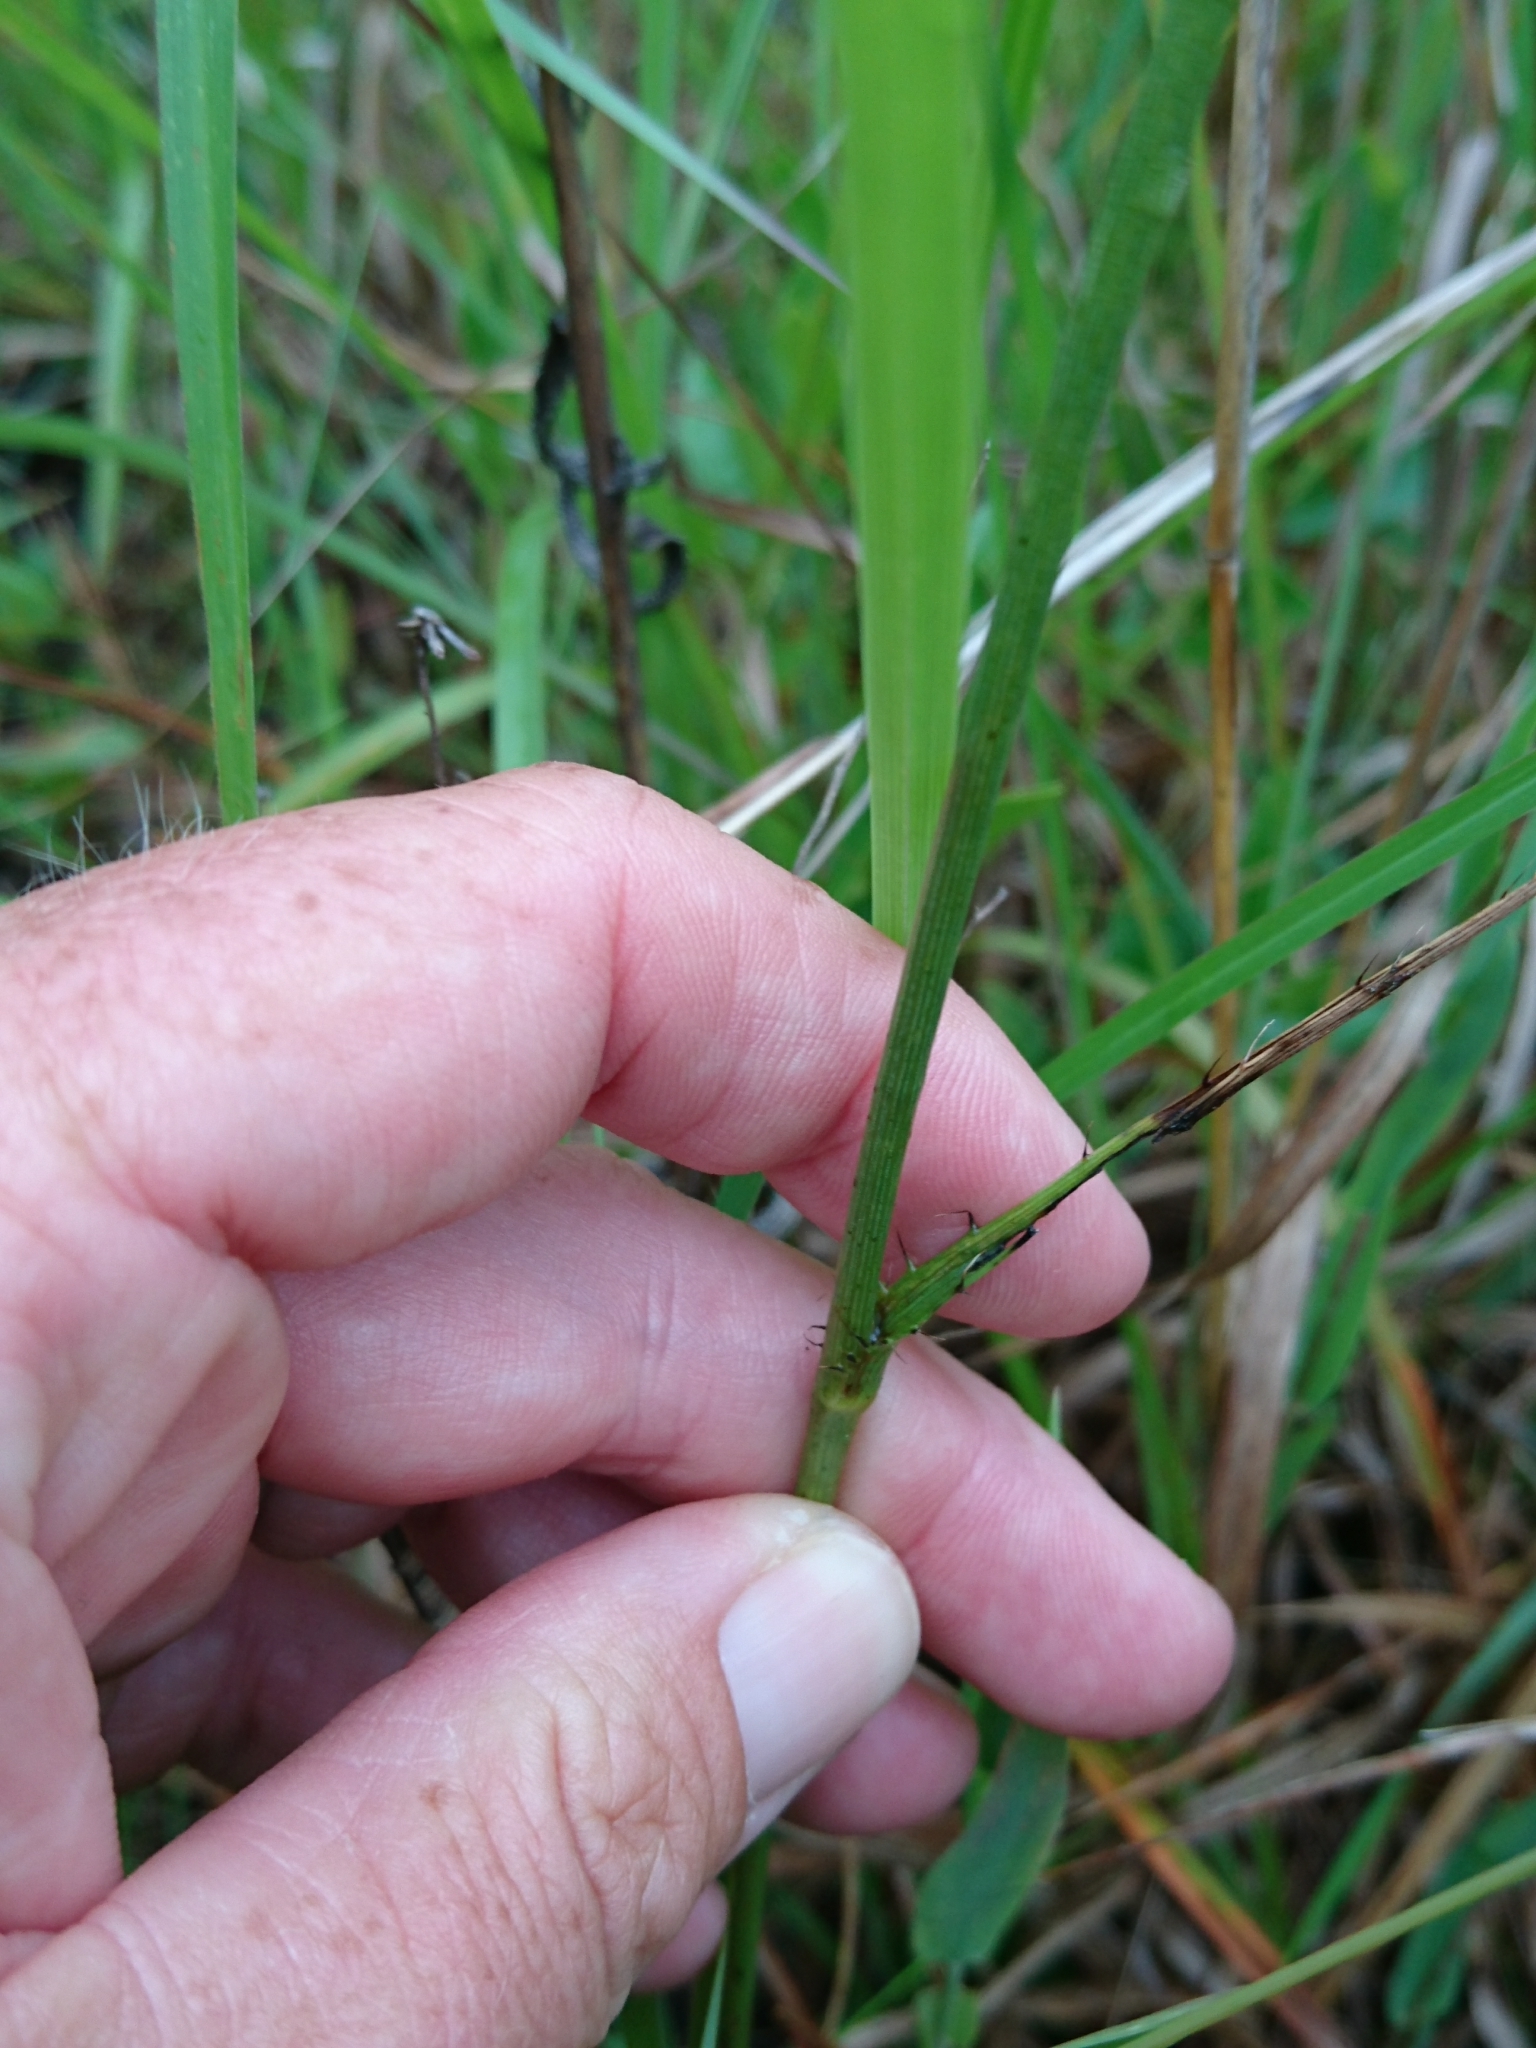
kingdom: Plantae
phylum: Tracheophyta
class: Magnoliopsida
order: Apiales
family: Apiaceae
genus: Eryngium
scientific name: Eryngium yuccifolium
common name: Button eryngo
